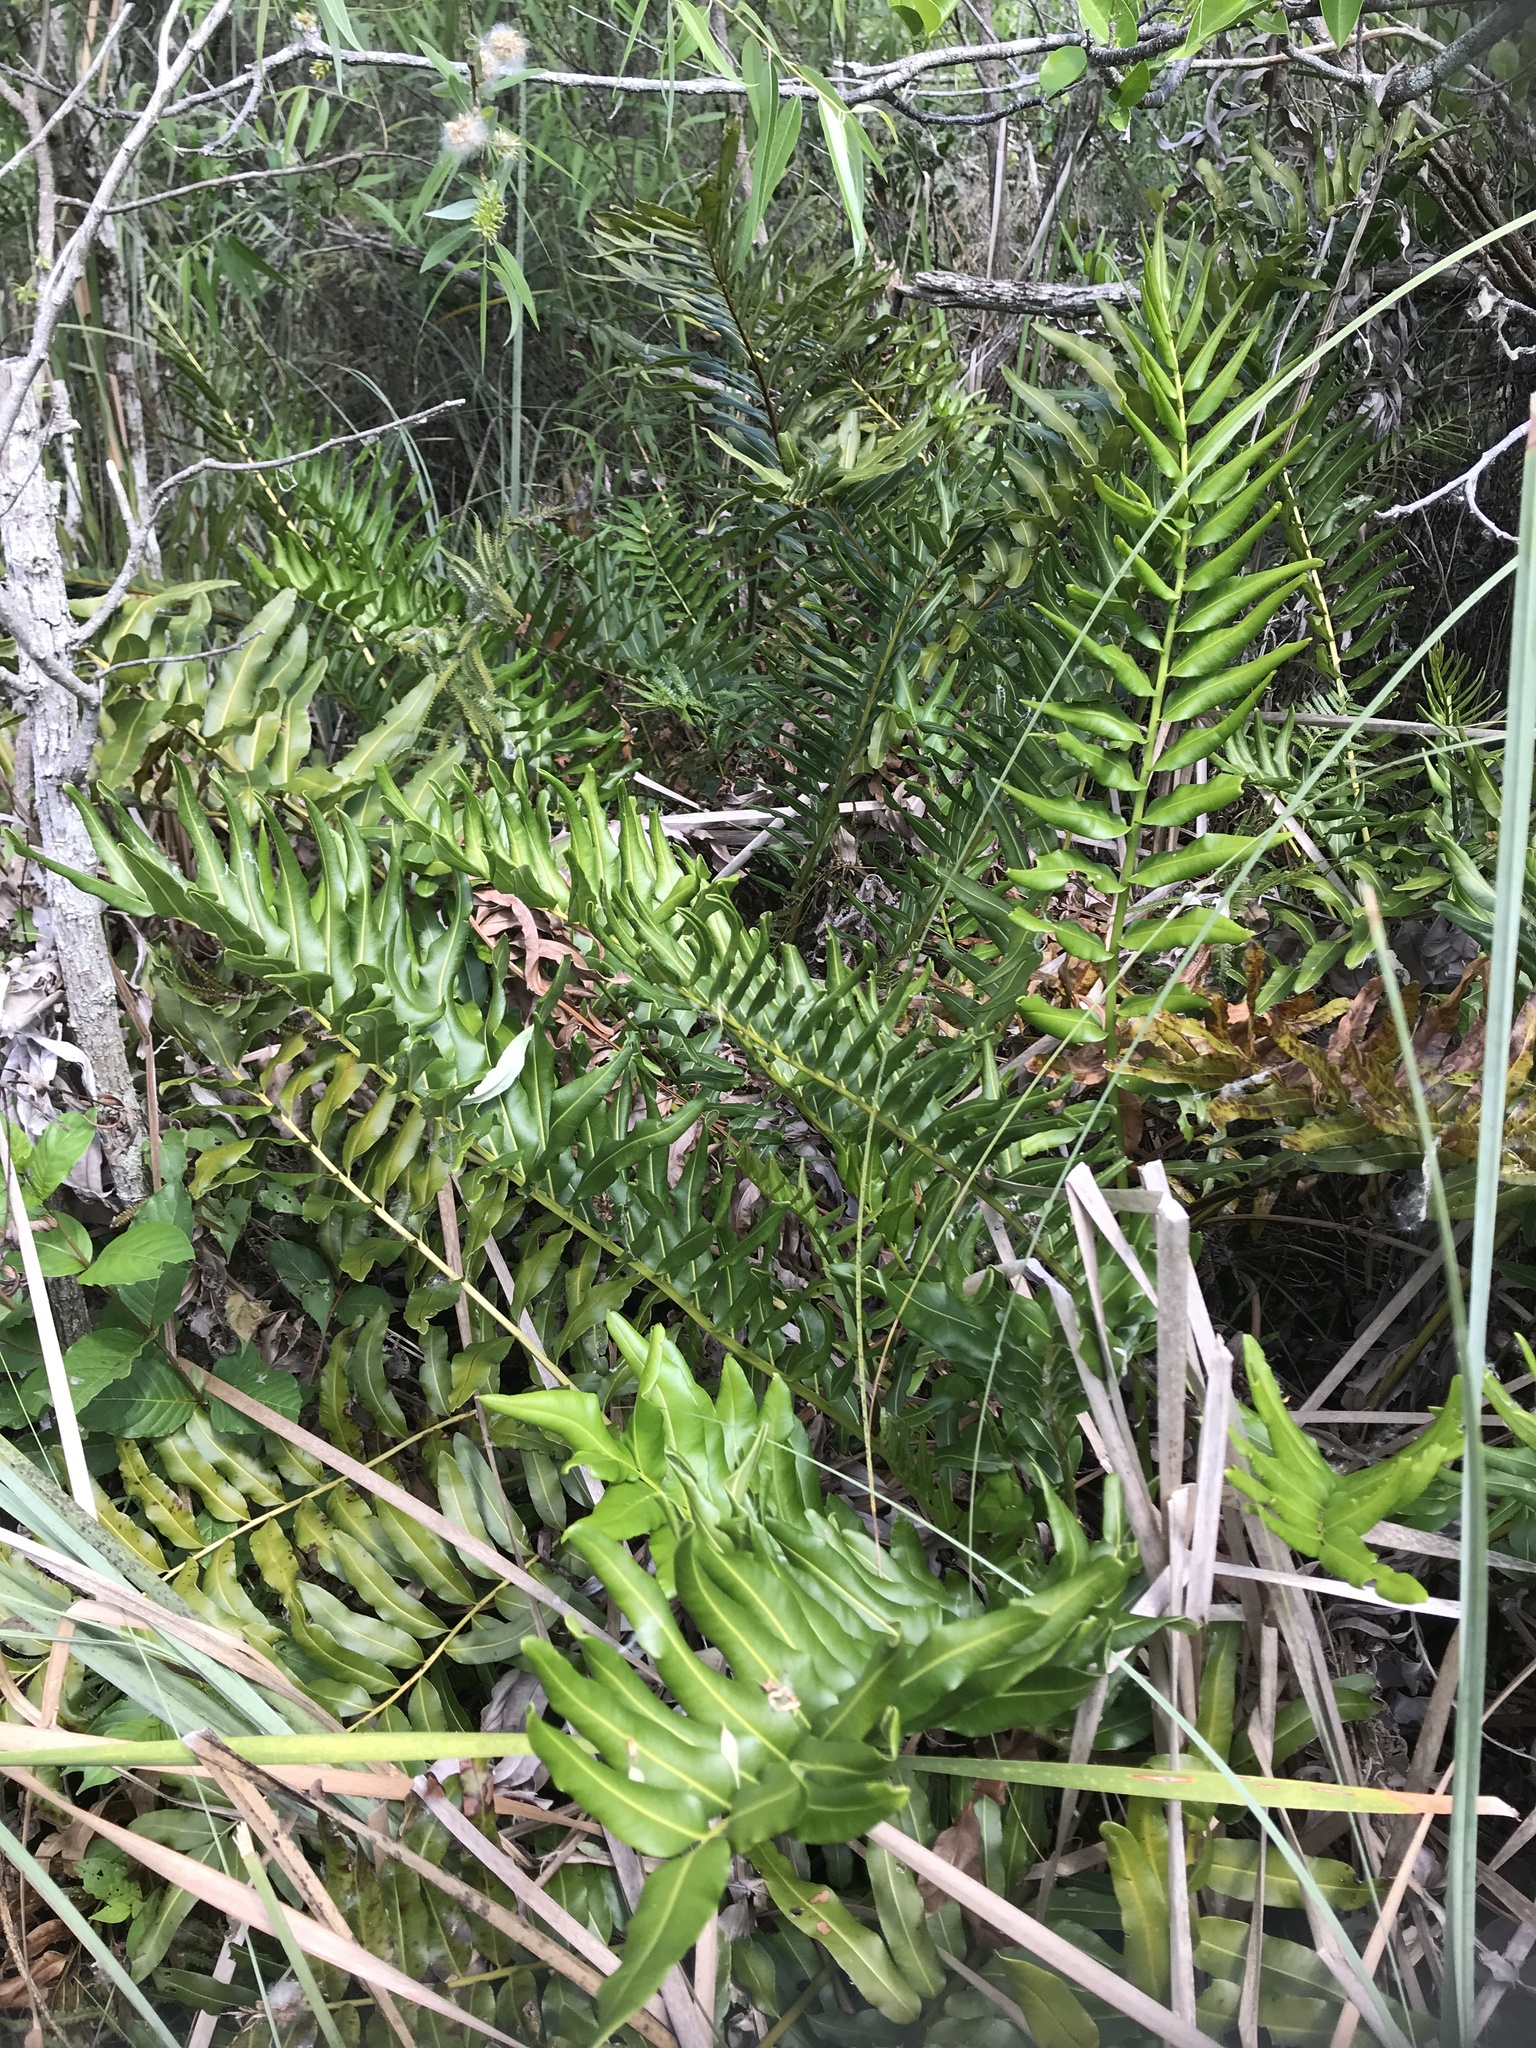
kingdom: Plantae
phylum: Tracheophyta
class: Polypodiopsida
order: Polypodiales
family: Pteridaceae
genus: Acrostichum
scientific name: Acrostichum danaeifolium
